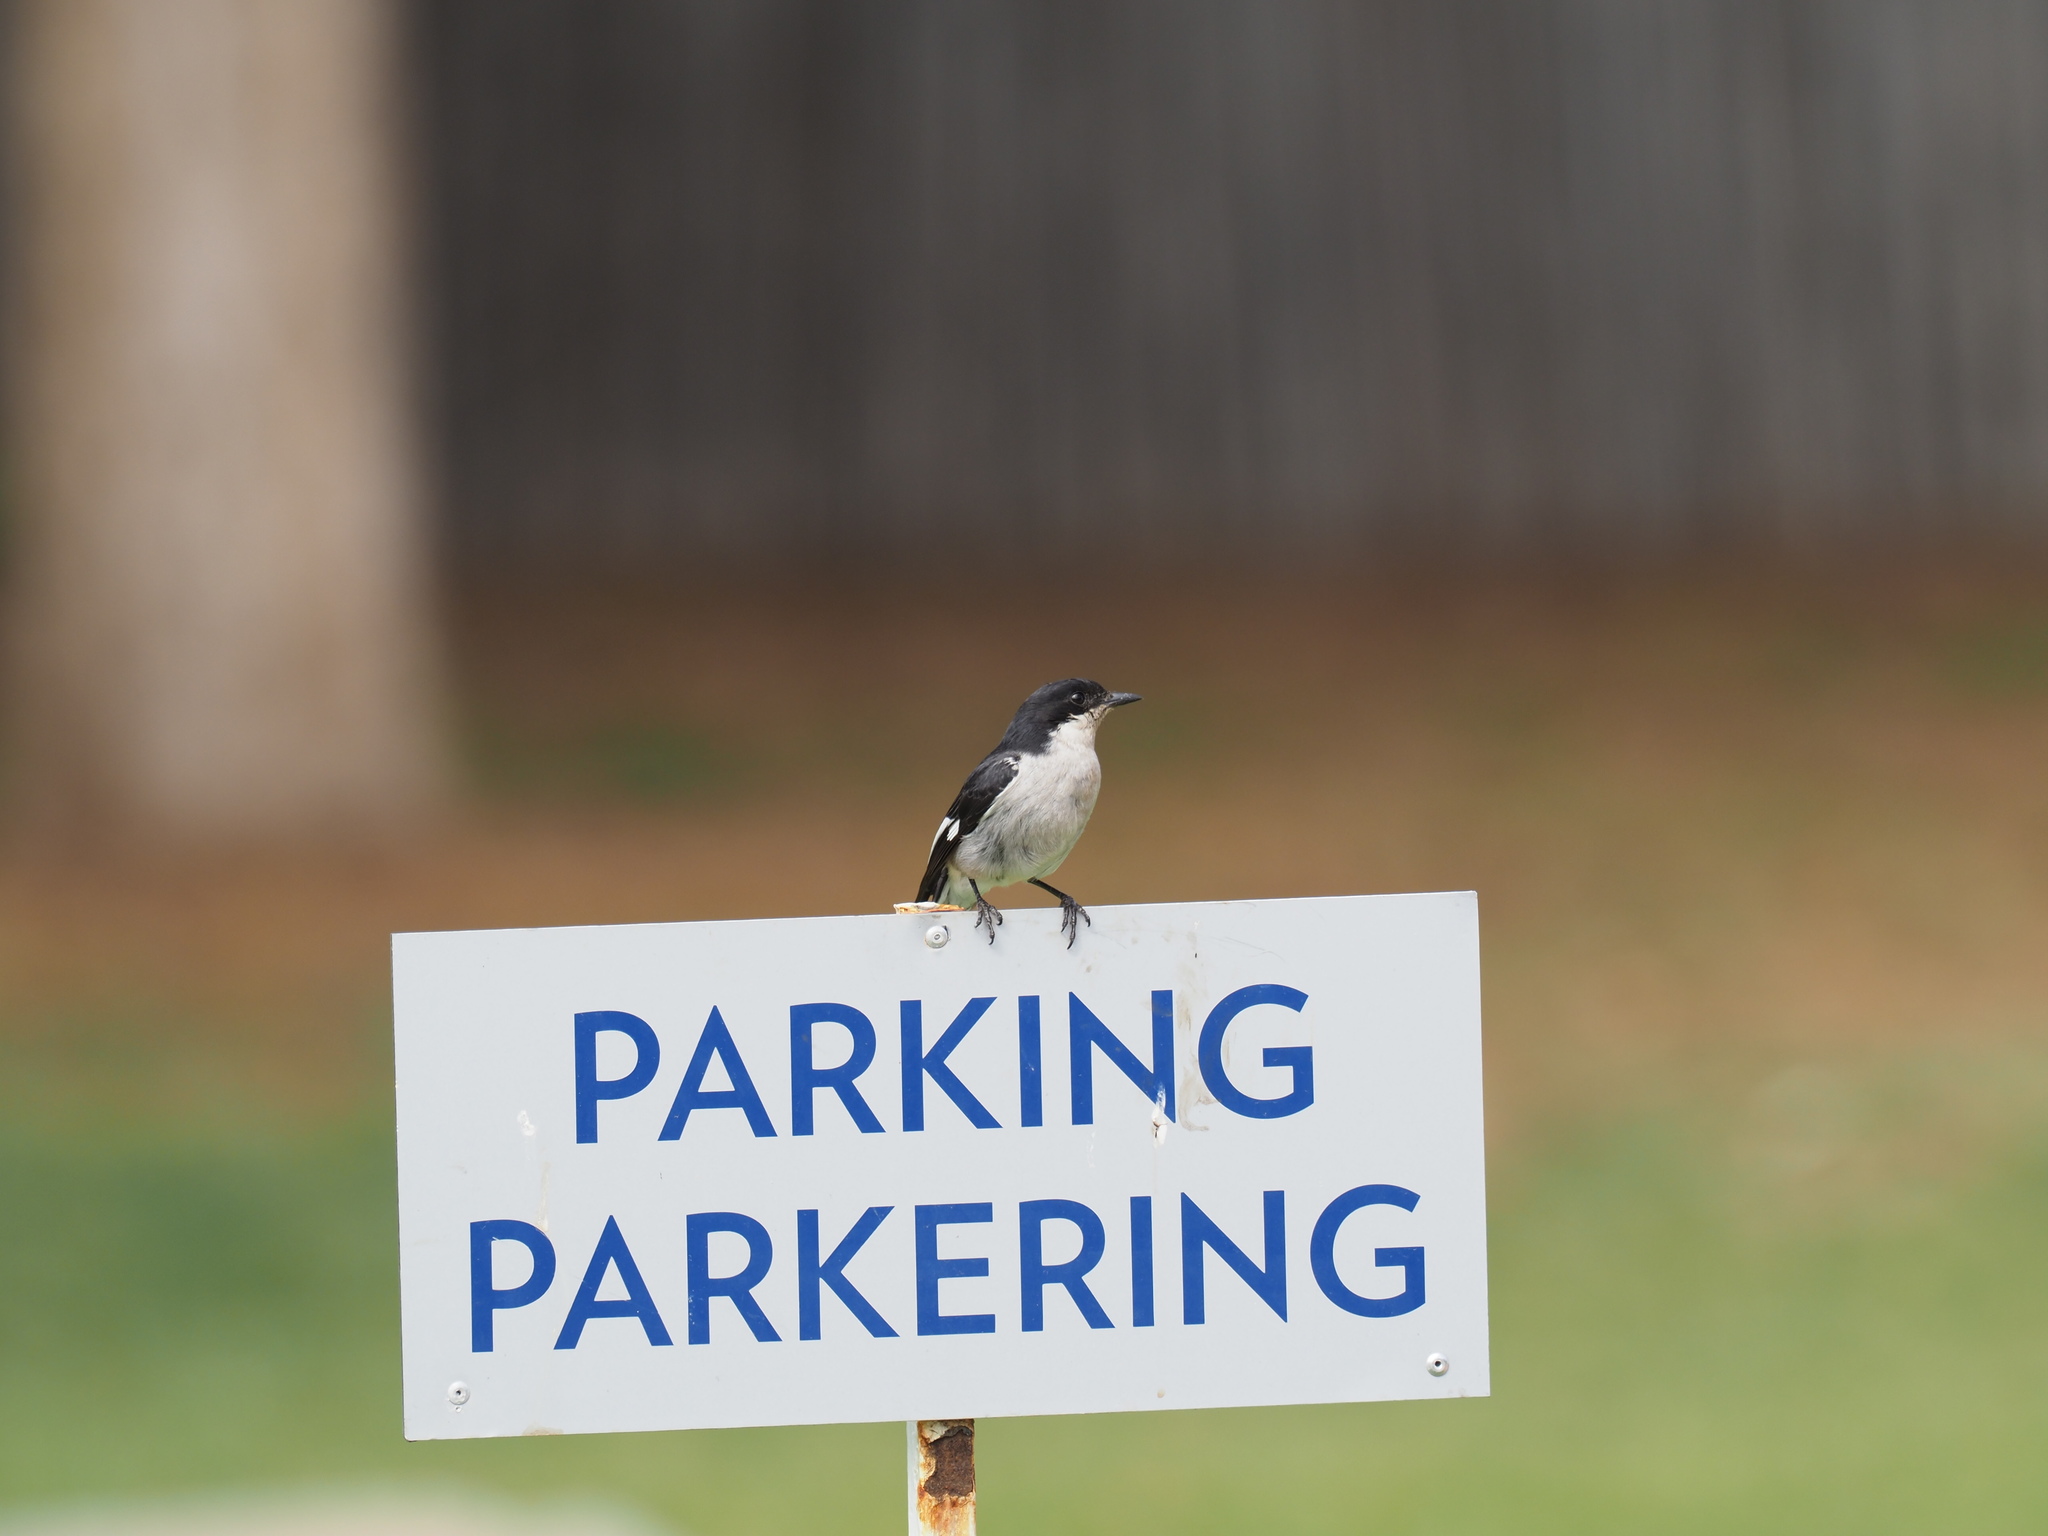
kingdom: Animalia
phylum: Chordata
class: Aves
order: Passeriformes
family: Muscicapidae
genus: Sigelus
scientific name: Sigelus silens
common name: Fiscal flycatcher
